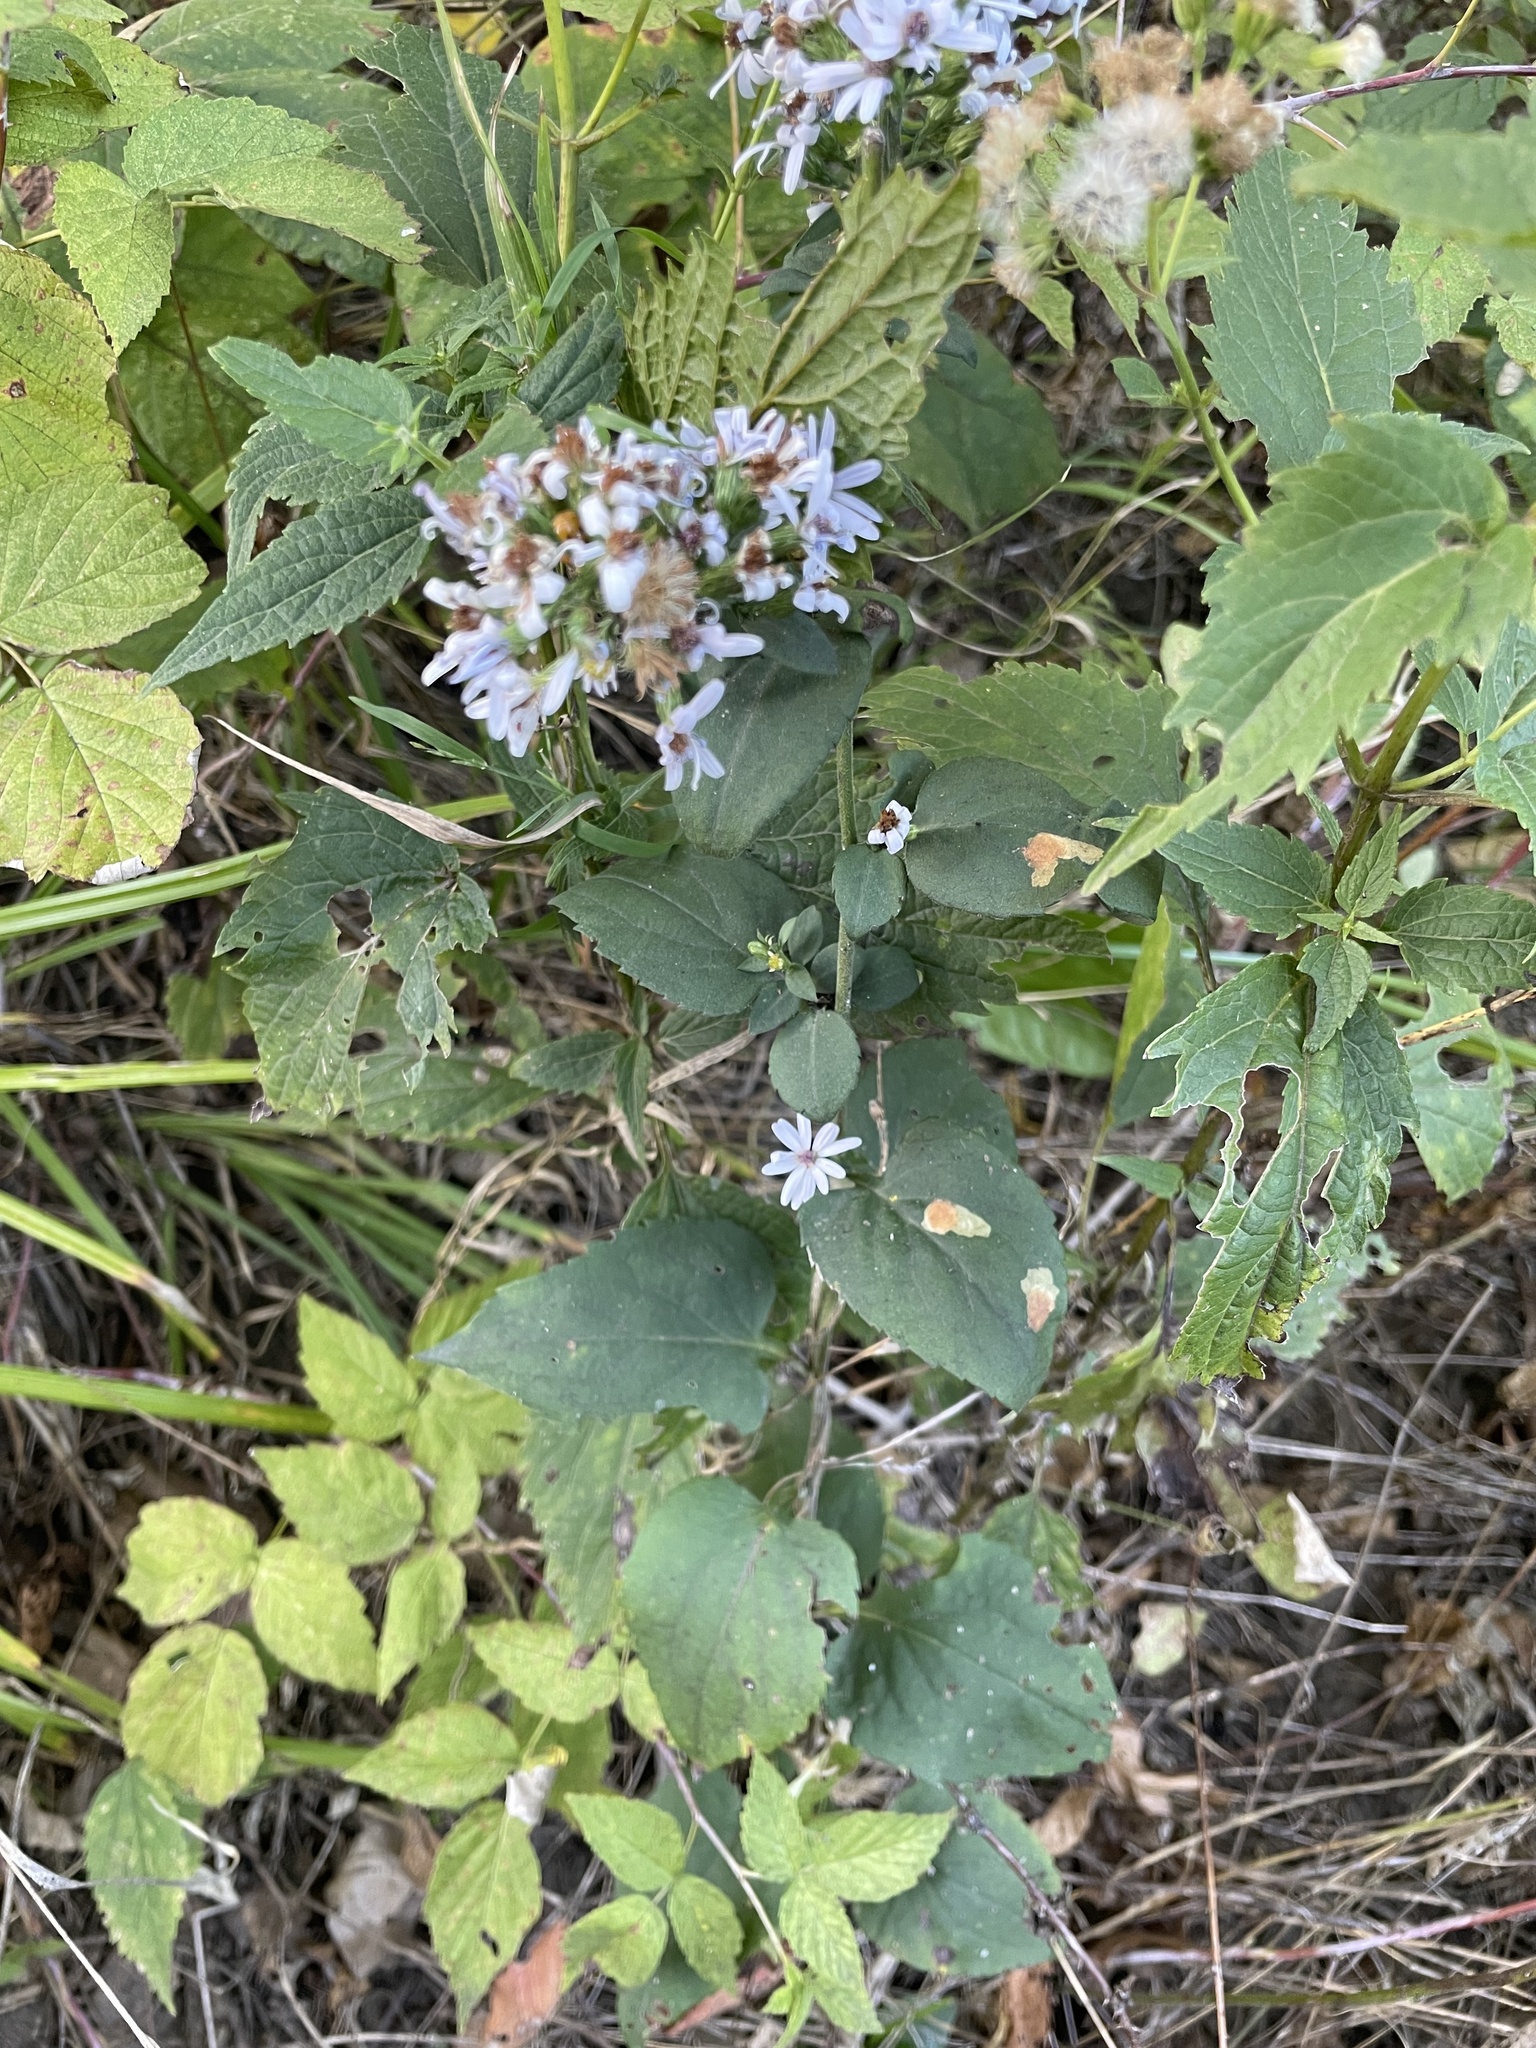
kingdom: Plantae
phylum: Tracheophyta
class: Magnoliopsida
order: Asterales
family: Asteraceae
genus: Symphyotrichum
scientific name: Symphyotrichum cordifolium
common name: Beeweed
